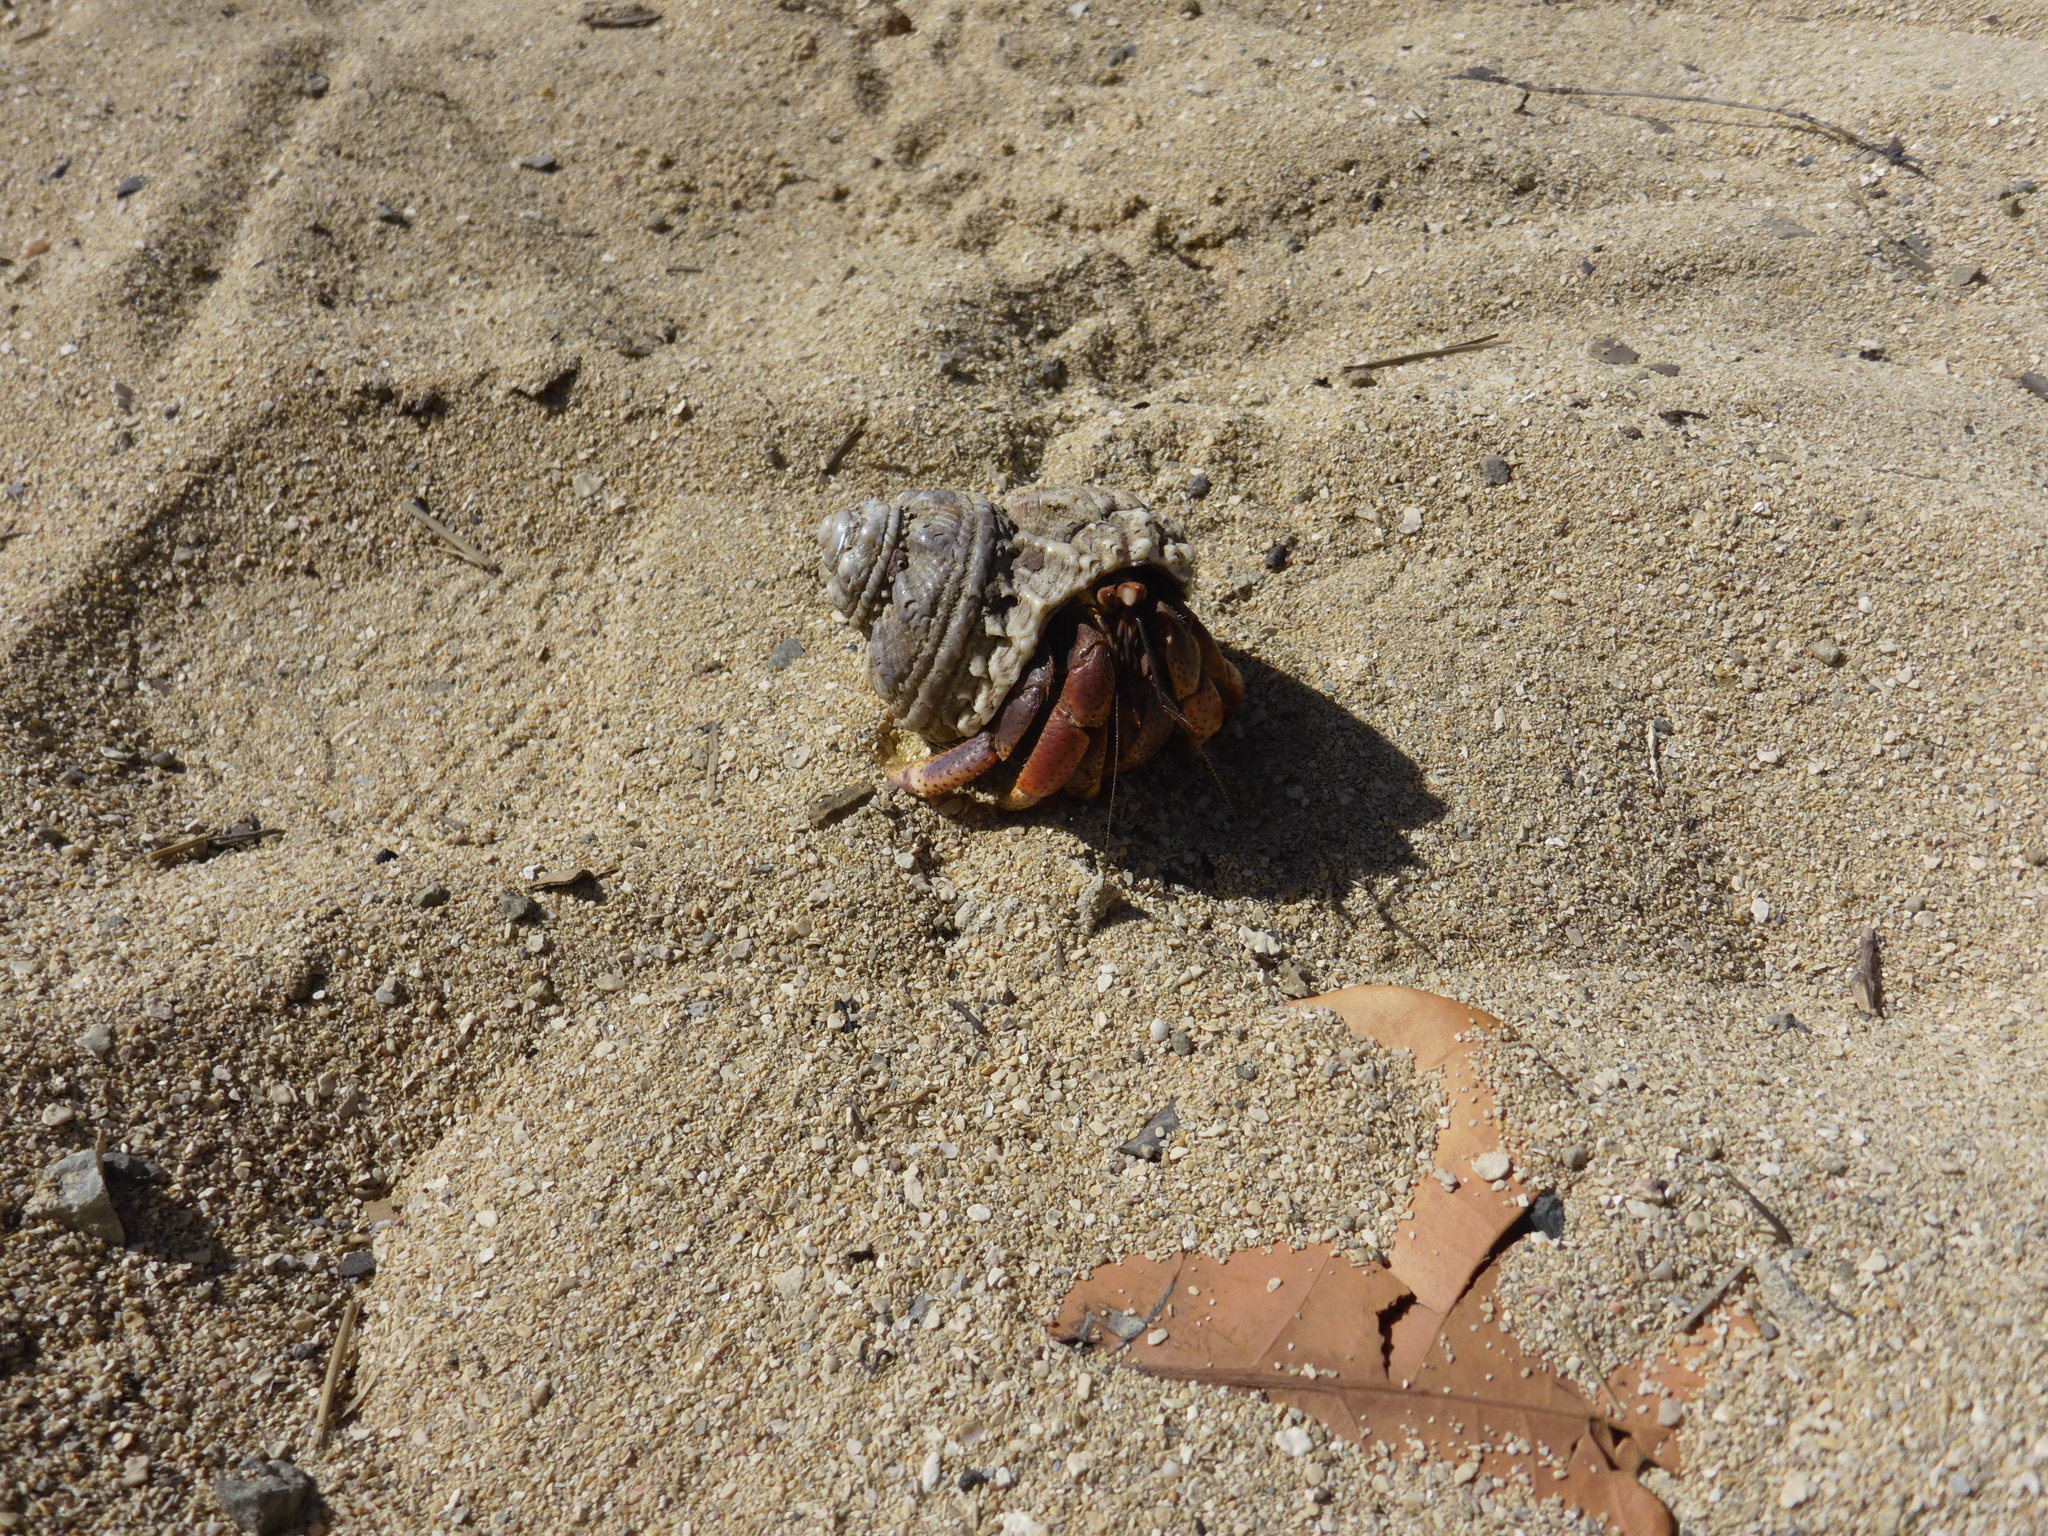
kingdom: Animalia
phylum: Arthropoda
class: Malacostraca
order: Decapoda
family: Coenobitidae
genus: Coenobita
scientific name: Coenobita clypeatus
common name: Caribbean hermit crab
